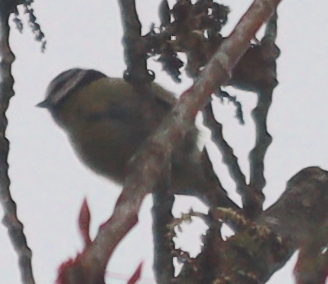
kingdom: Animalia
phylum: Chordata
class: Aves
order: Passeriformes
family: Paridae
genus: Cyanistes
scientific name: Cyanistes caeruleus
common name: Eurasian blue tit
